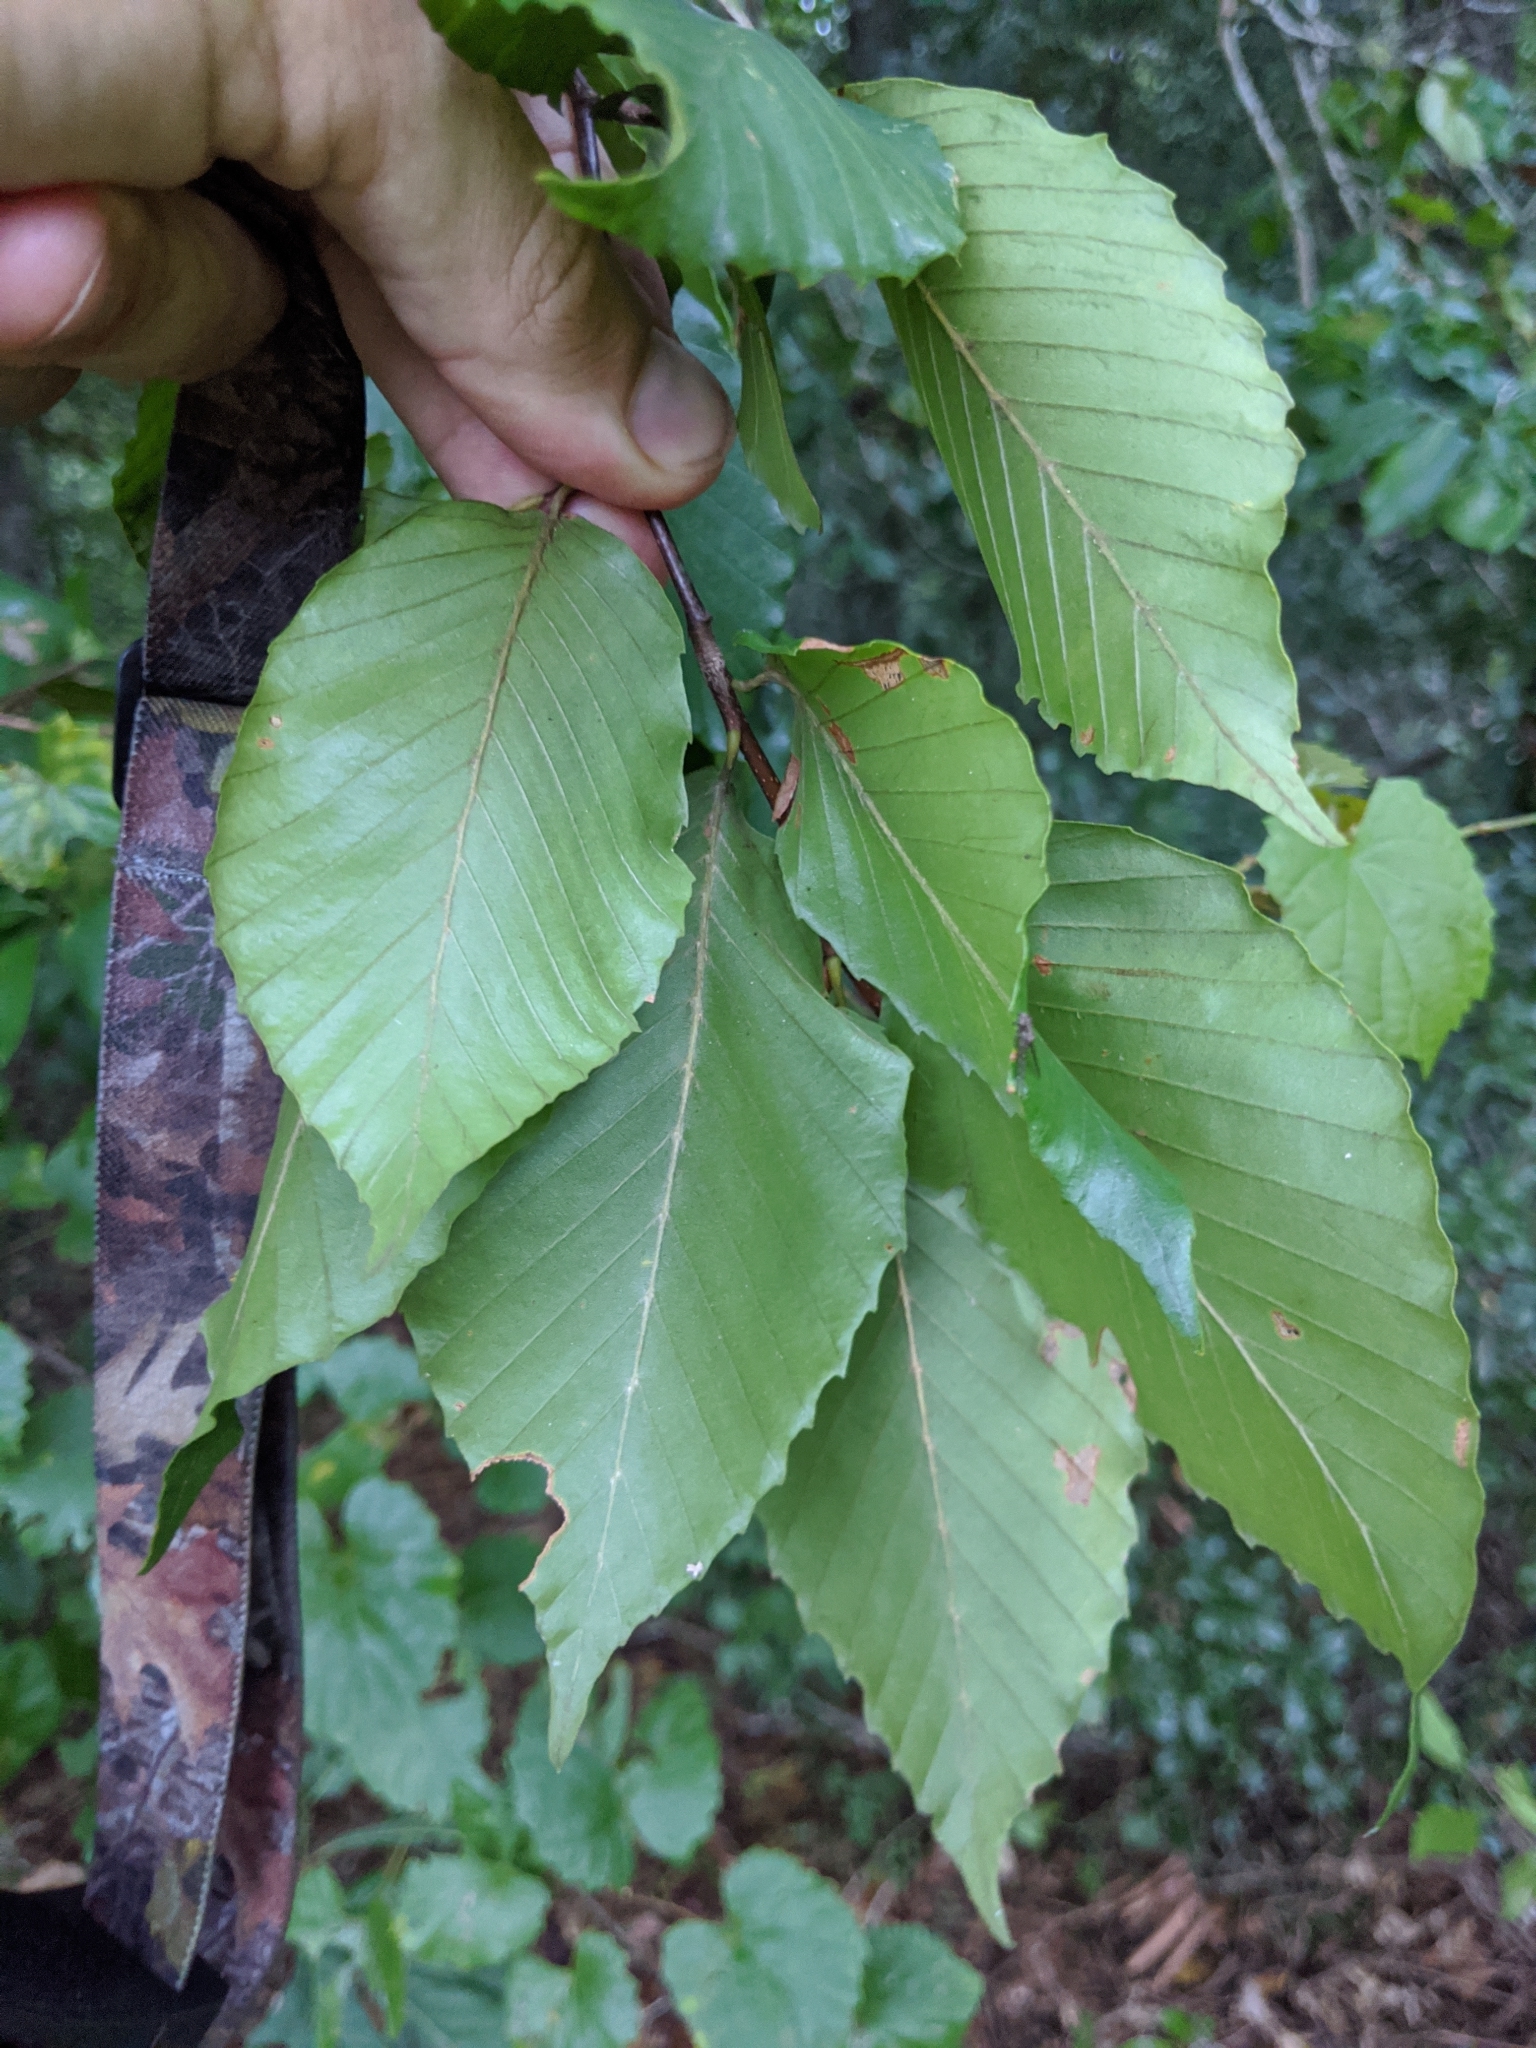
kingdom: Plantae
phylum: Tracheophyta
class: Magnoliopsida
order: Fagales
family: Fagaceae
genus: Fagus
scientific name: Fagus grandifolia
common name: American beech
